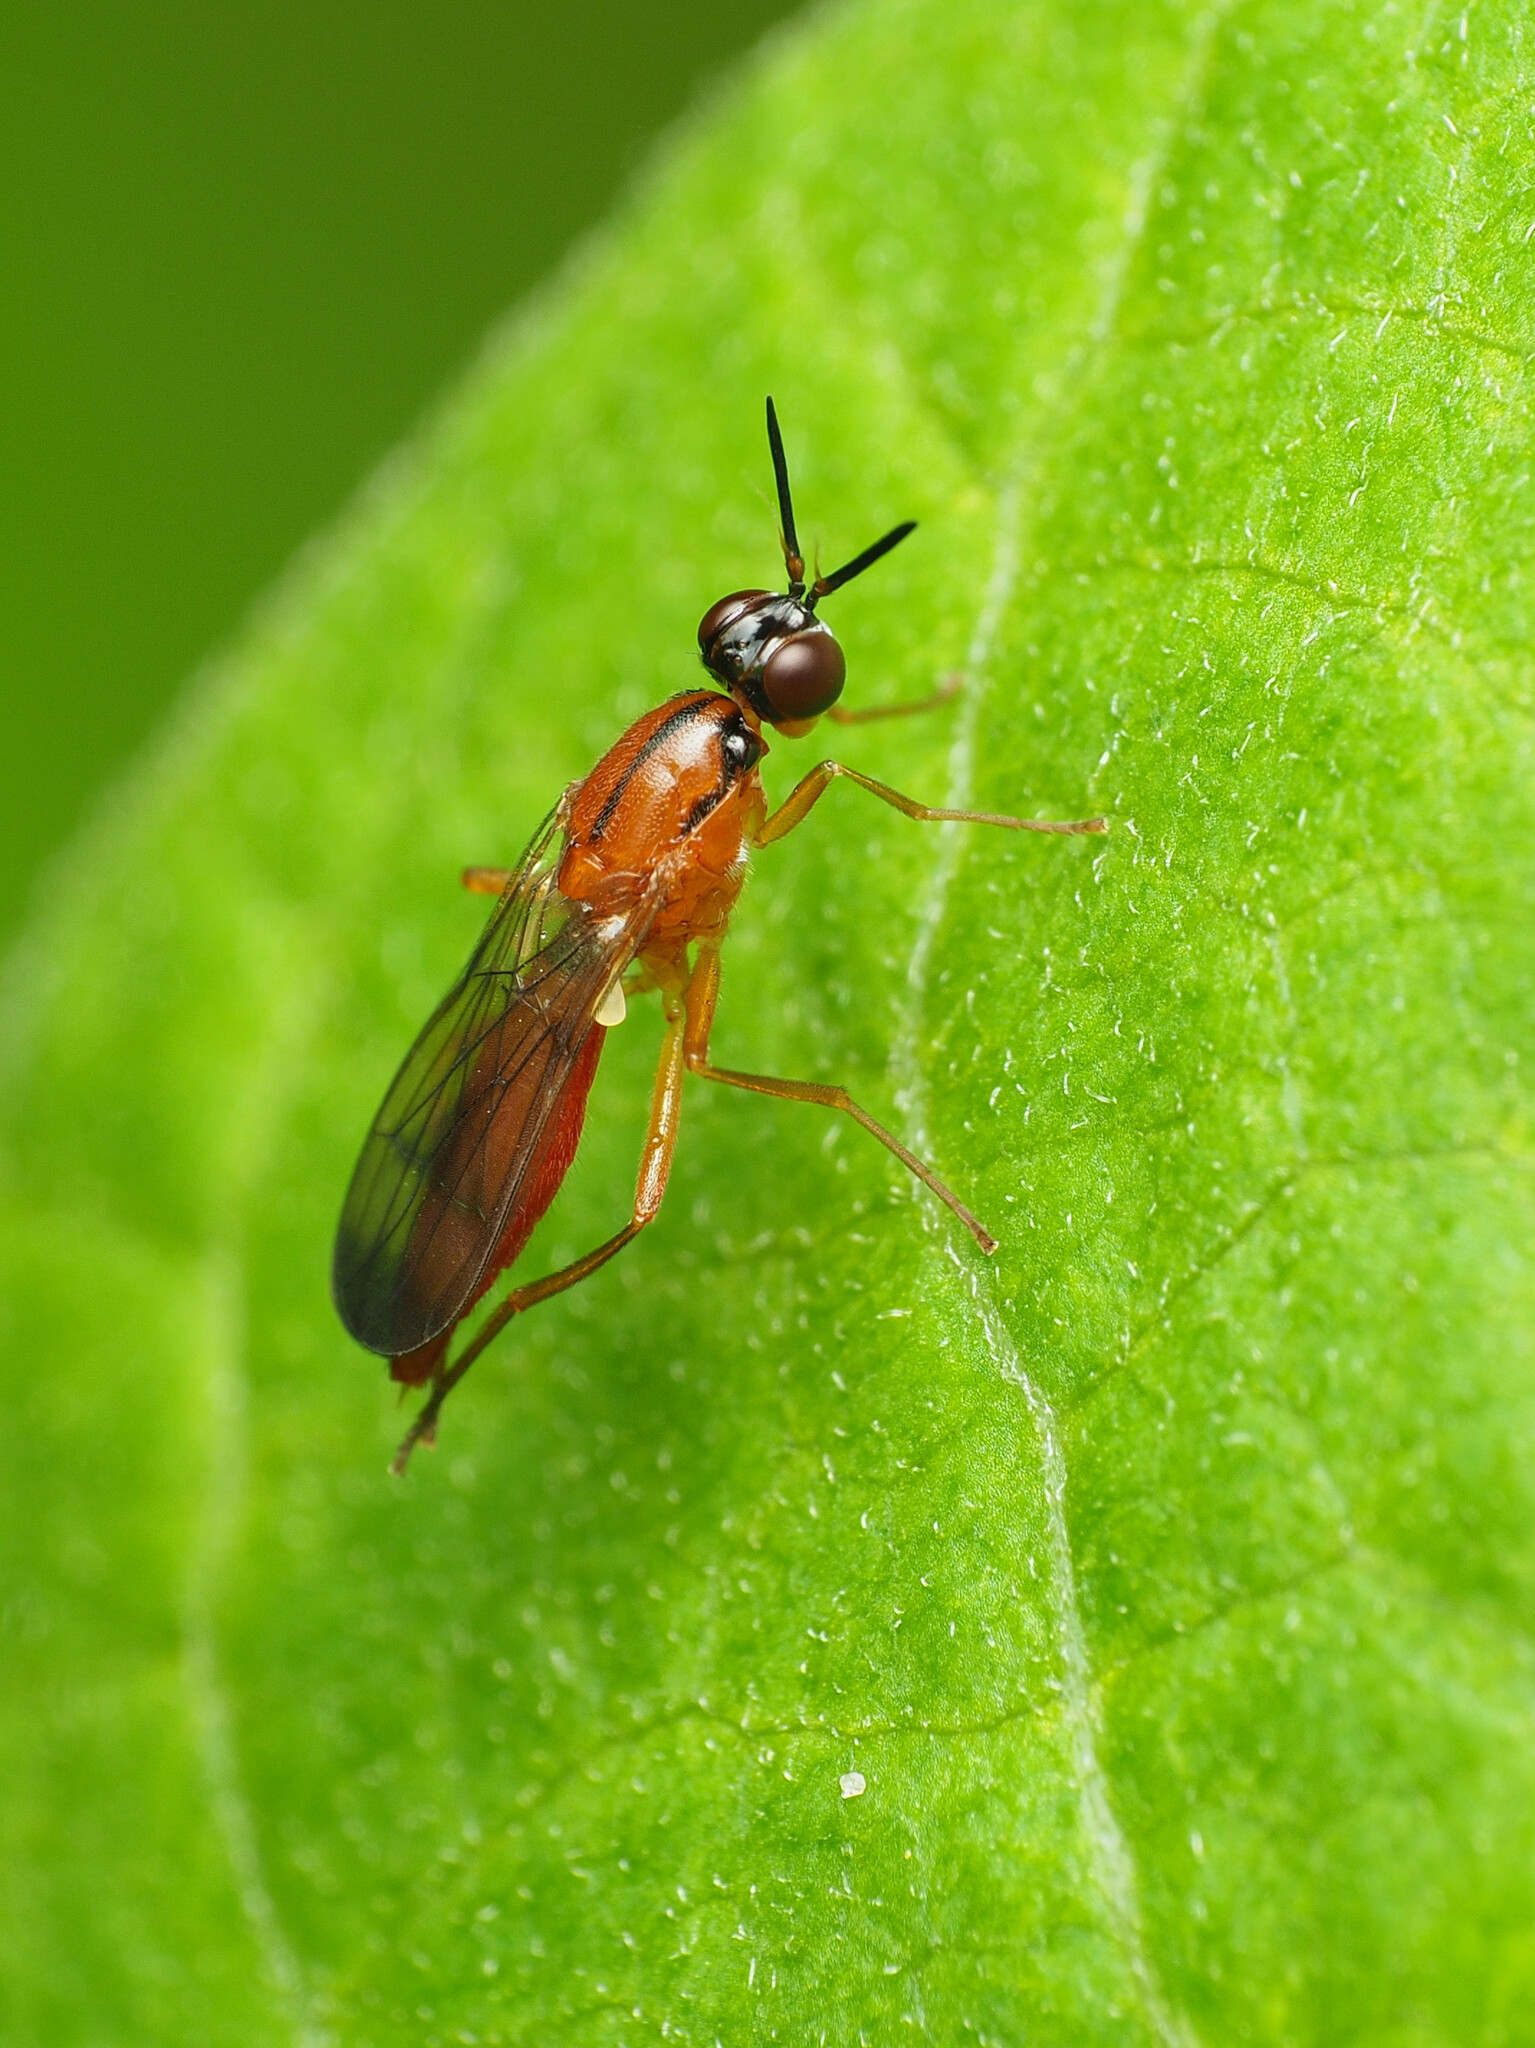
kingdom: Animalia
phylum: Arthropoda
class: Insecta
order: Diptera
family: Psilidae
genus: Loxocera
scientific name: Loxocera cylindrica
